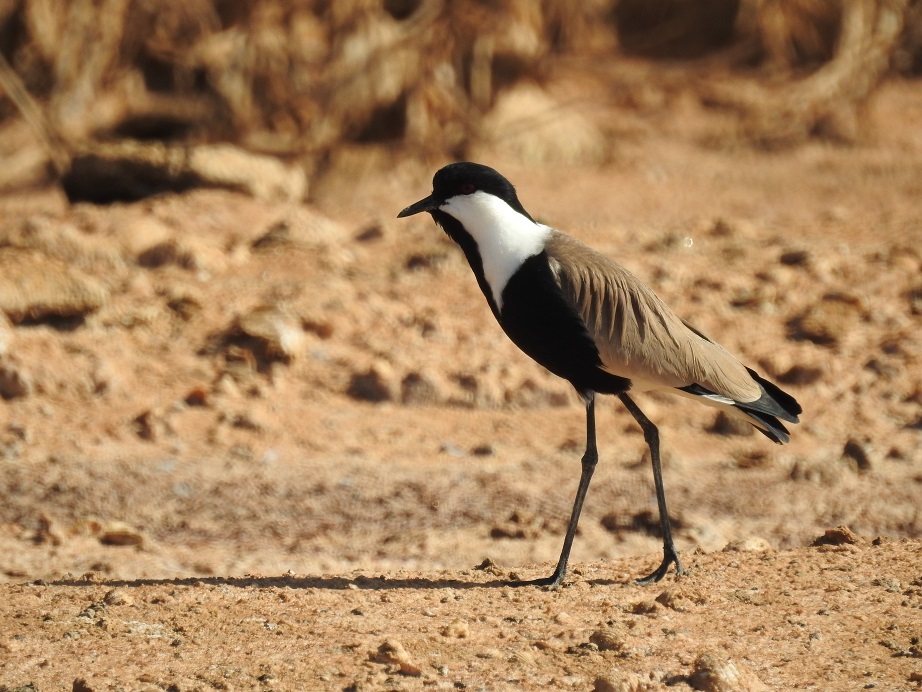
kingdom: Animalia
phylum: Chordata
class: Aves
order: Charadriiformes
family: Charadriidae
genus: Vanellus
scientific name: Vanellus spinosus
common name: Spur-winged lapwing
